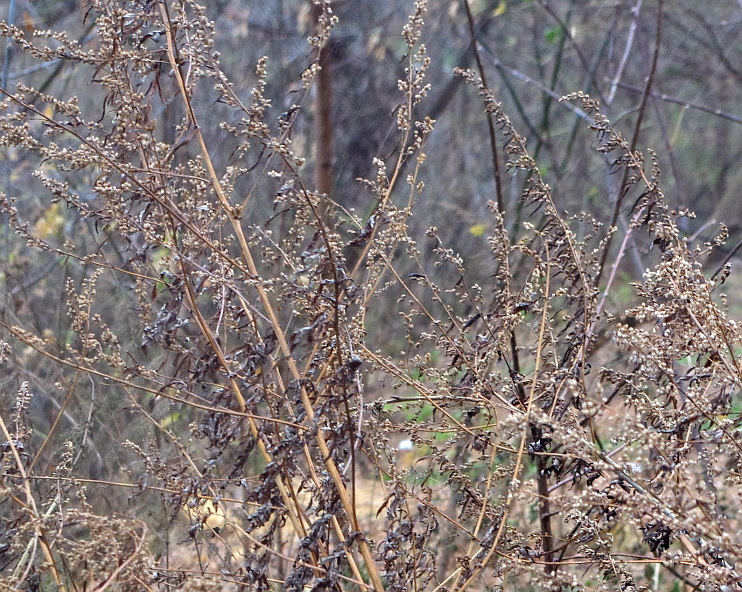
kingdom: Plantae
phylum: Tracheophyta
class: Magnoliopsida
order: Asterales
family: Asteraceae
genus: Artemisia
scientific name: Artemisia vulgaris
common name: Mugwort
